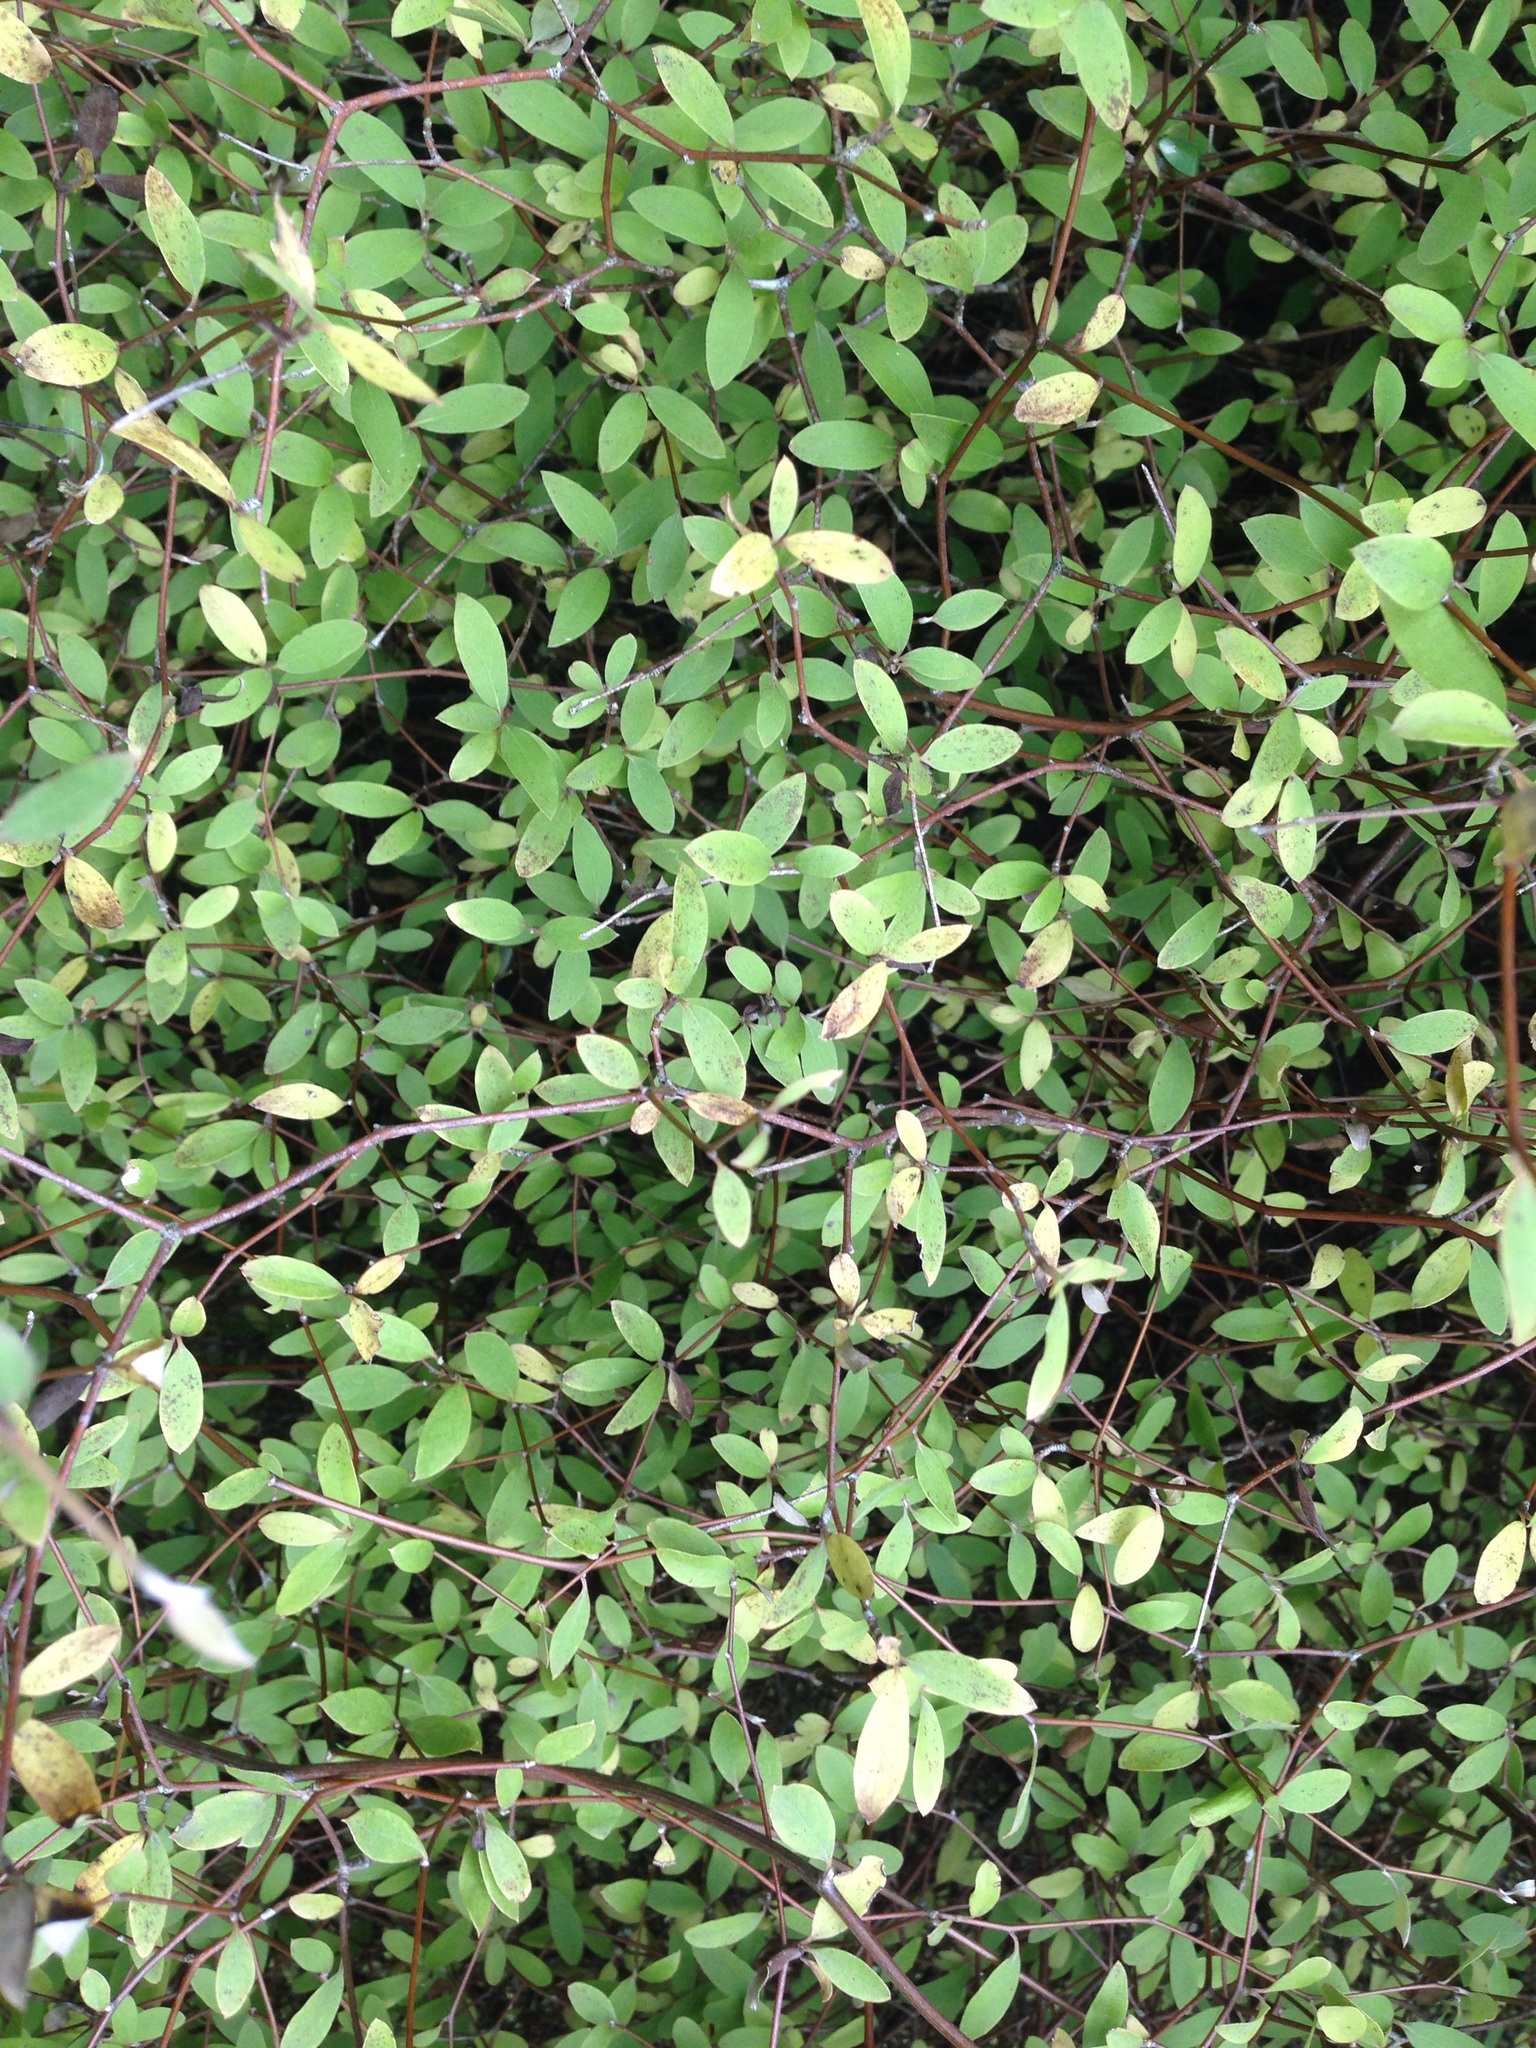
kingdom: Plantae
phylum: Tracheophyta
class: Magnoliopsida
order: Asterales
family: Asteraceae
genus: Olearia
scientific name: Olearia fragrantissima
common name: Fragrant tree daisy
